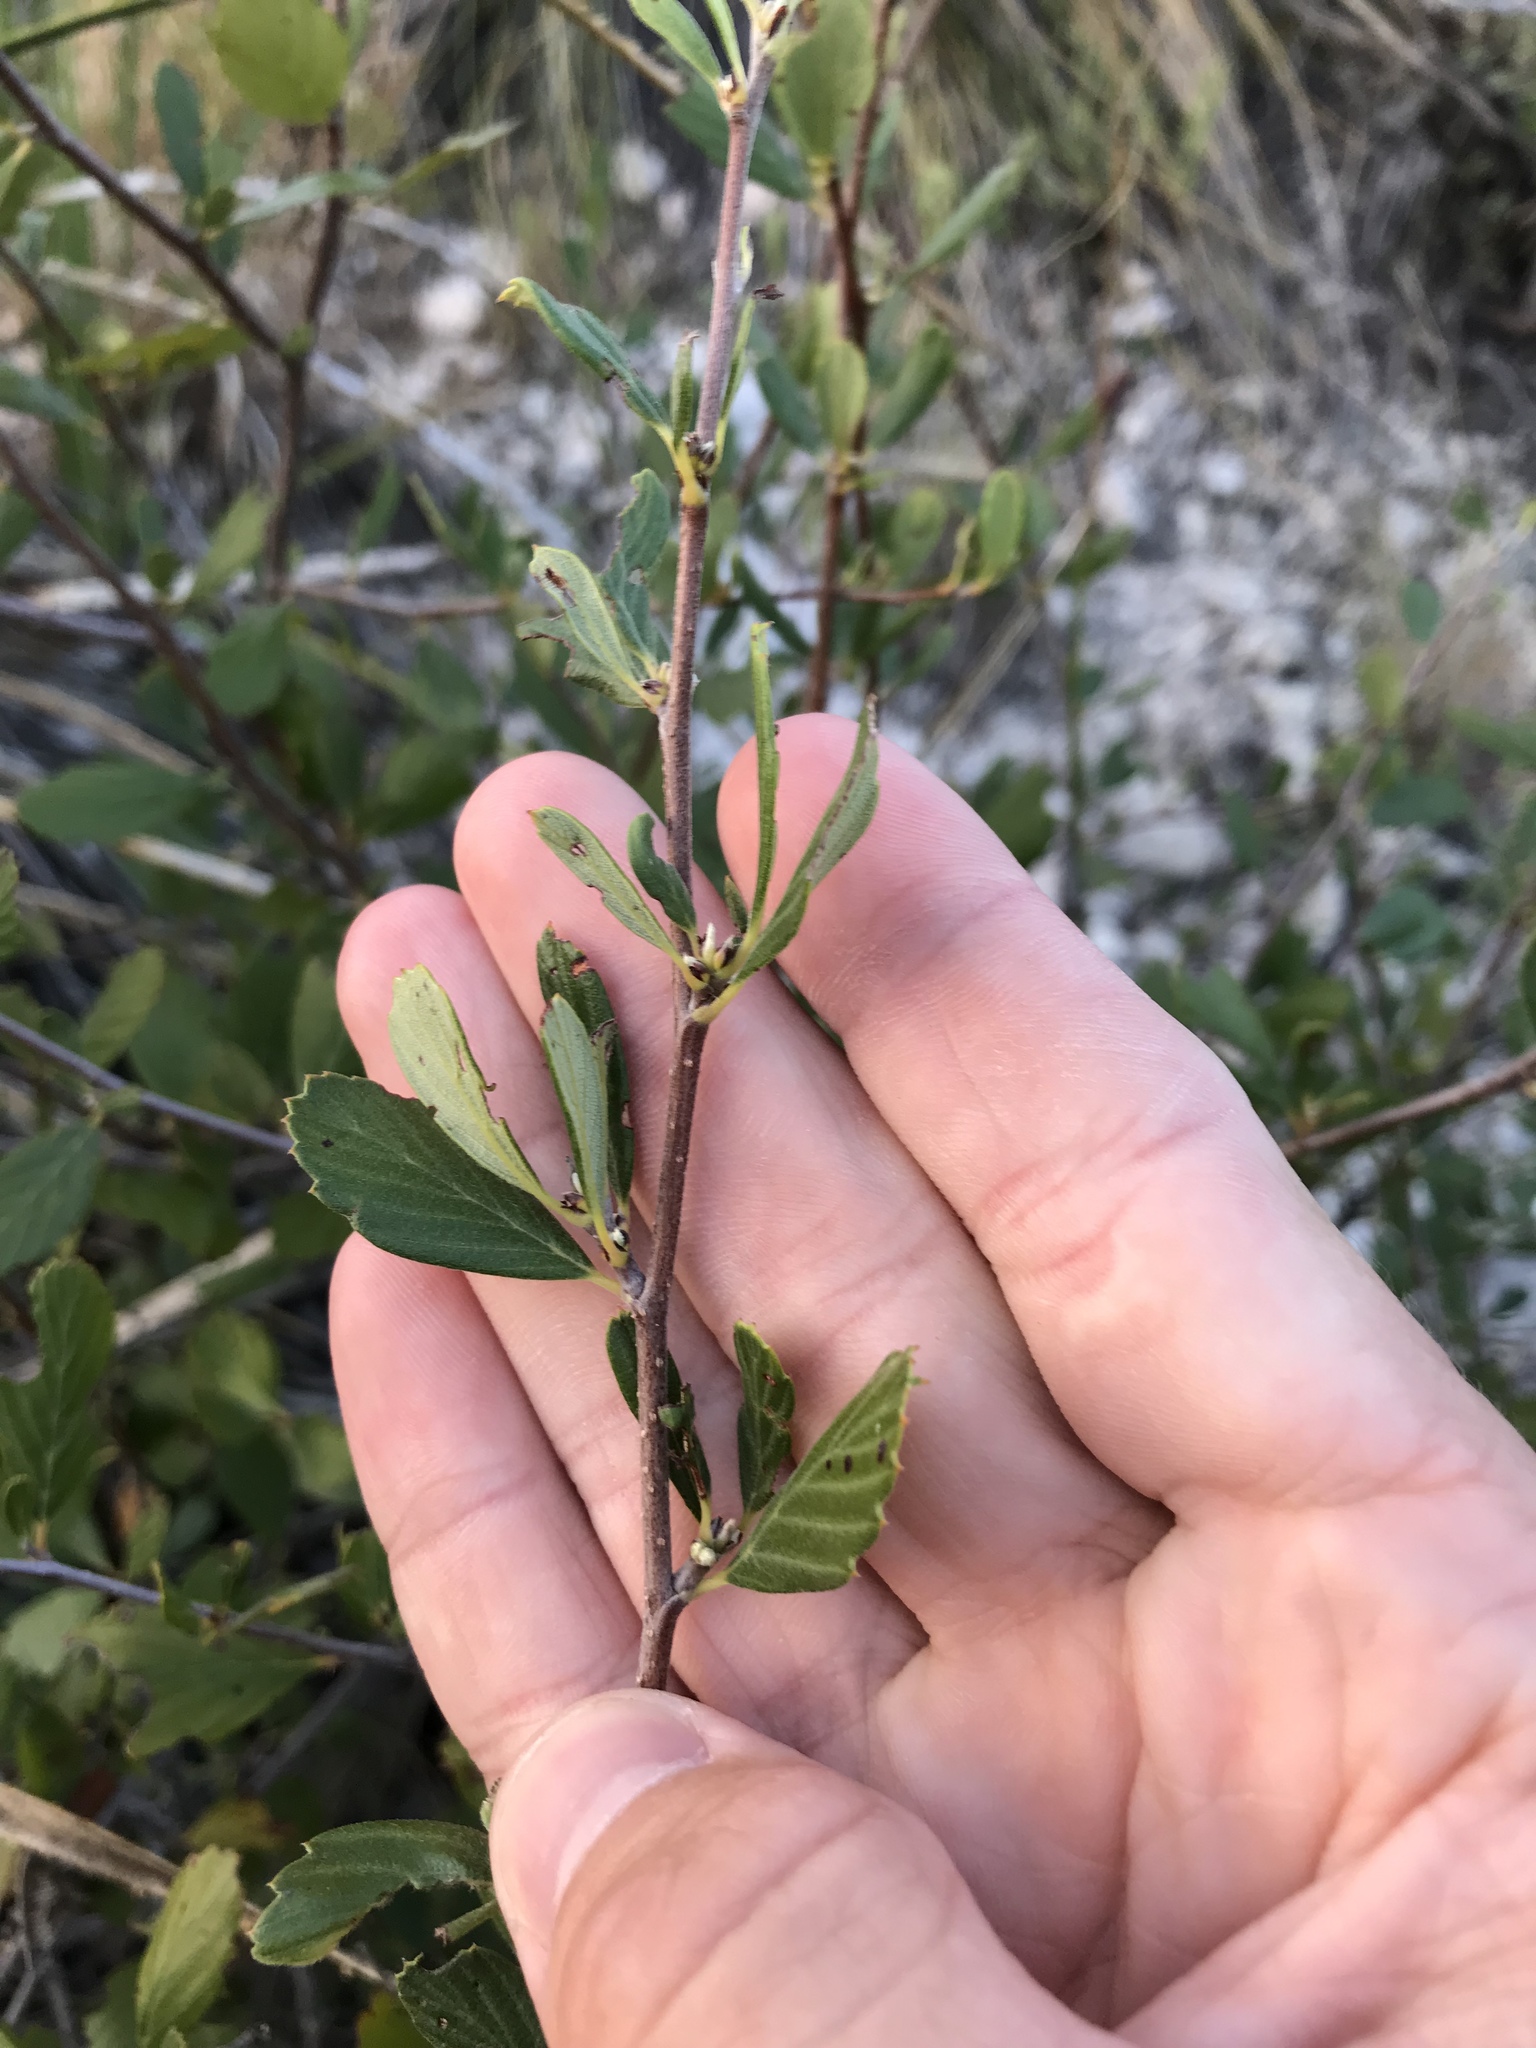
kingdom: Plantae
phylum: Tracheophyta
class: Magnoliopsida
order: Rosales
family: Rosaceae
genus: Cercocarpus
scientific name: Cercocarpus montanus
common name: Alder-leaf cercocarpus
